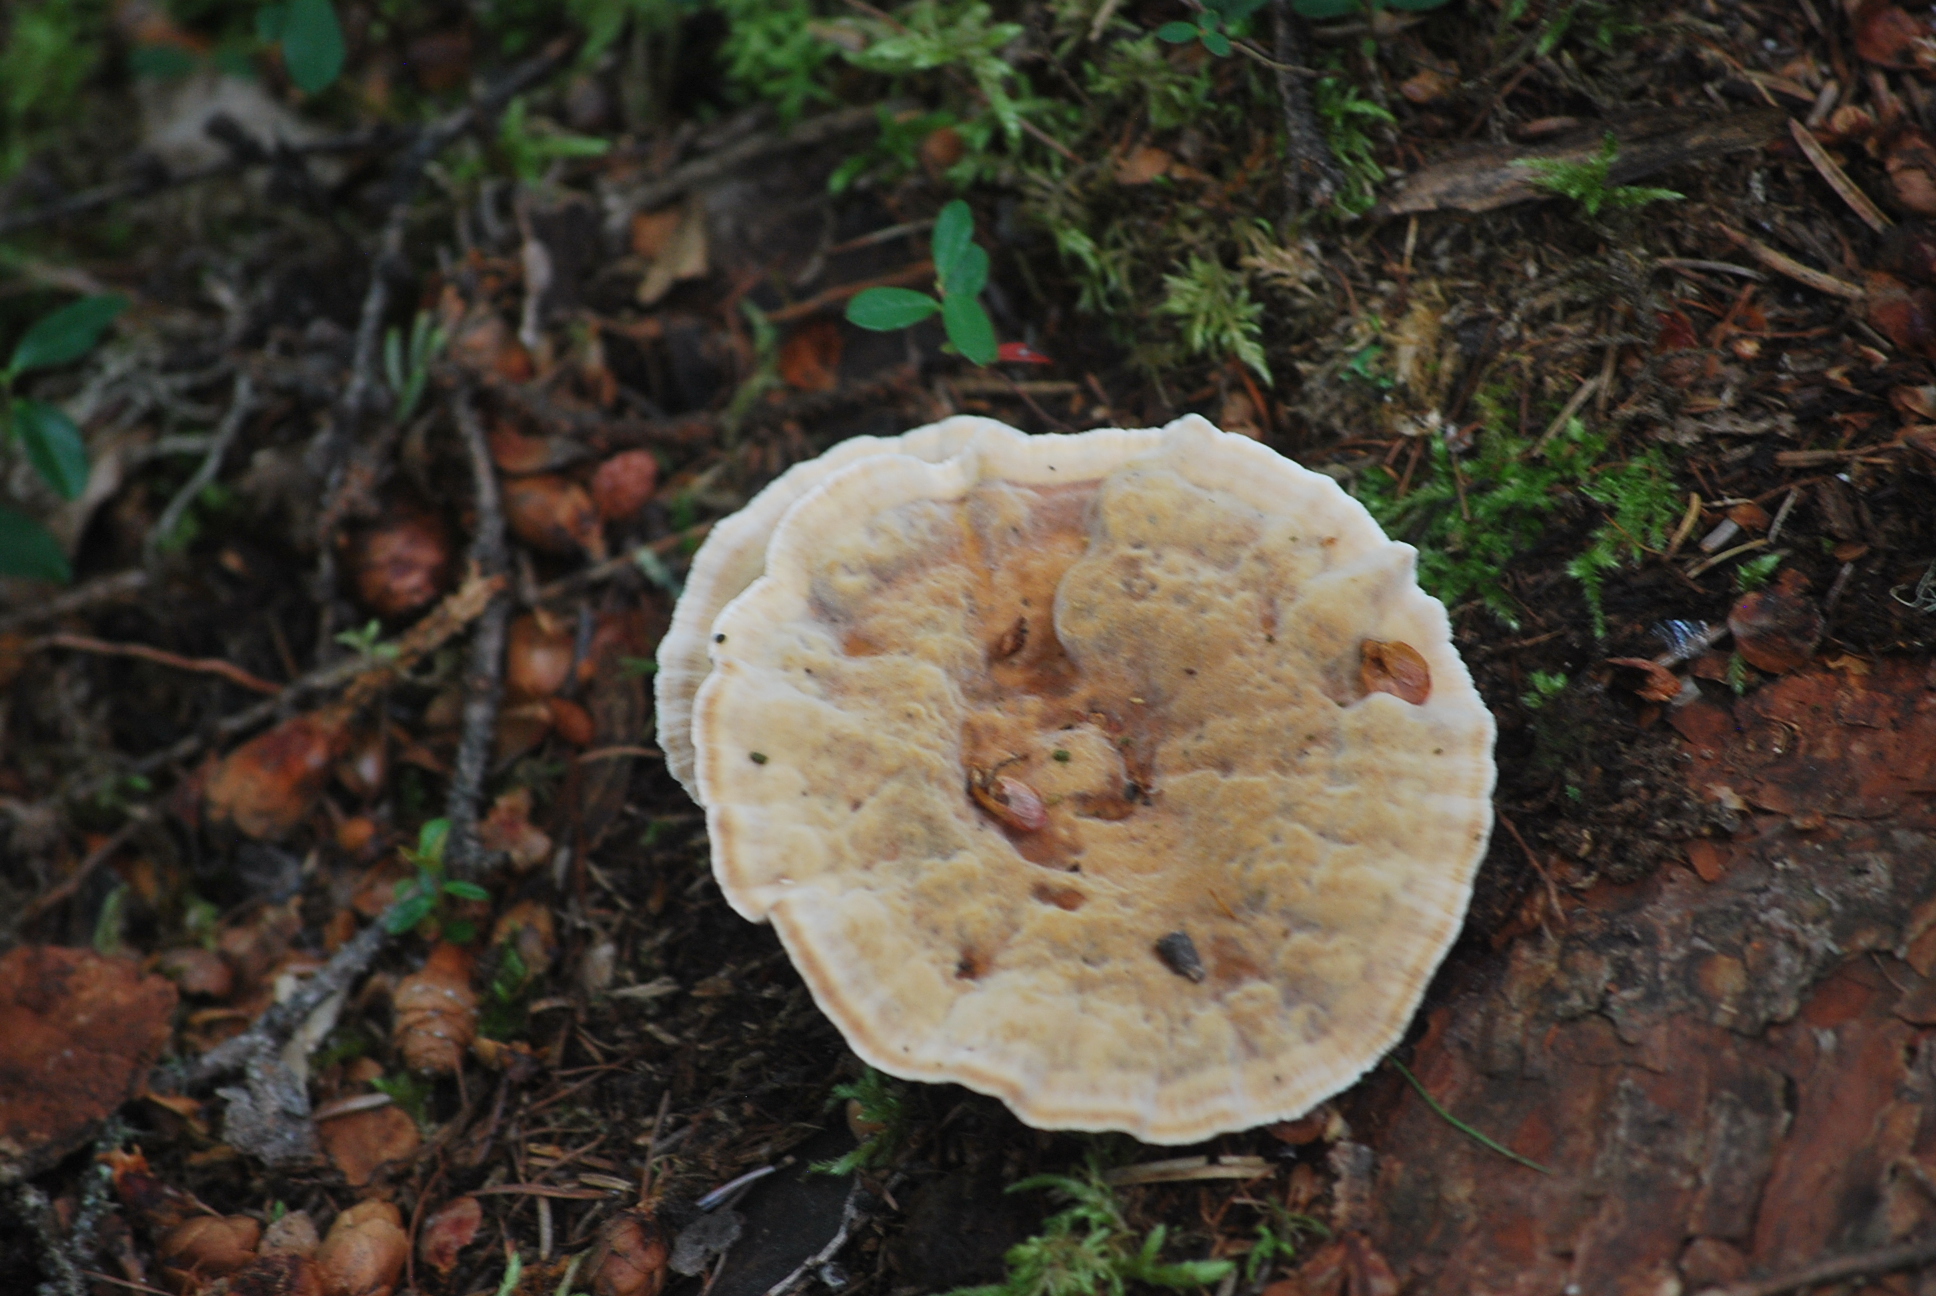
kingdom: Fungi
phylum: Basidiomycota
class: Agaricomycetes
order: Hymenochaetales
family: Hymenochaetaceae
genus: Onnia
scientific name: Onnia tomentosa
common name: Velvet rosette
